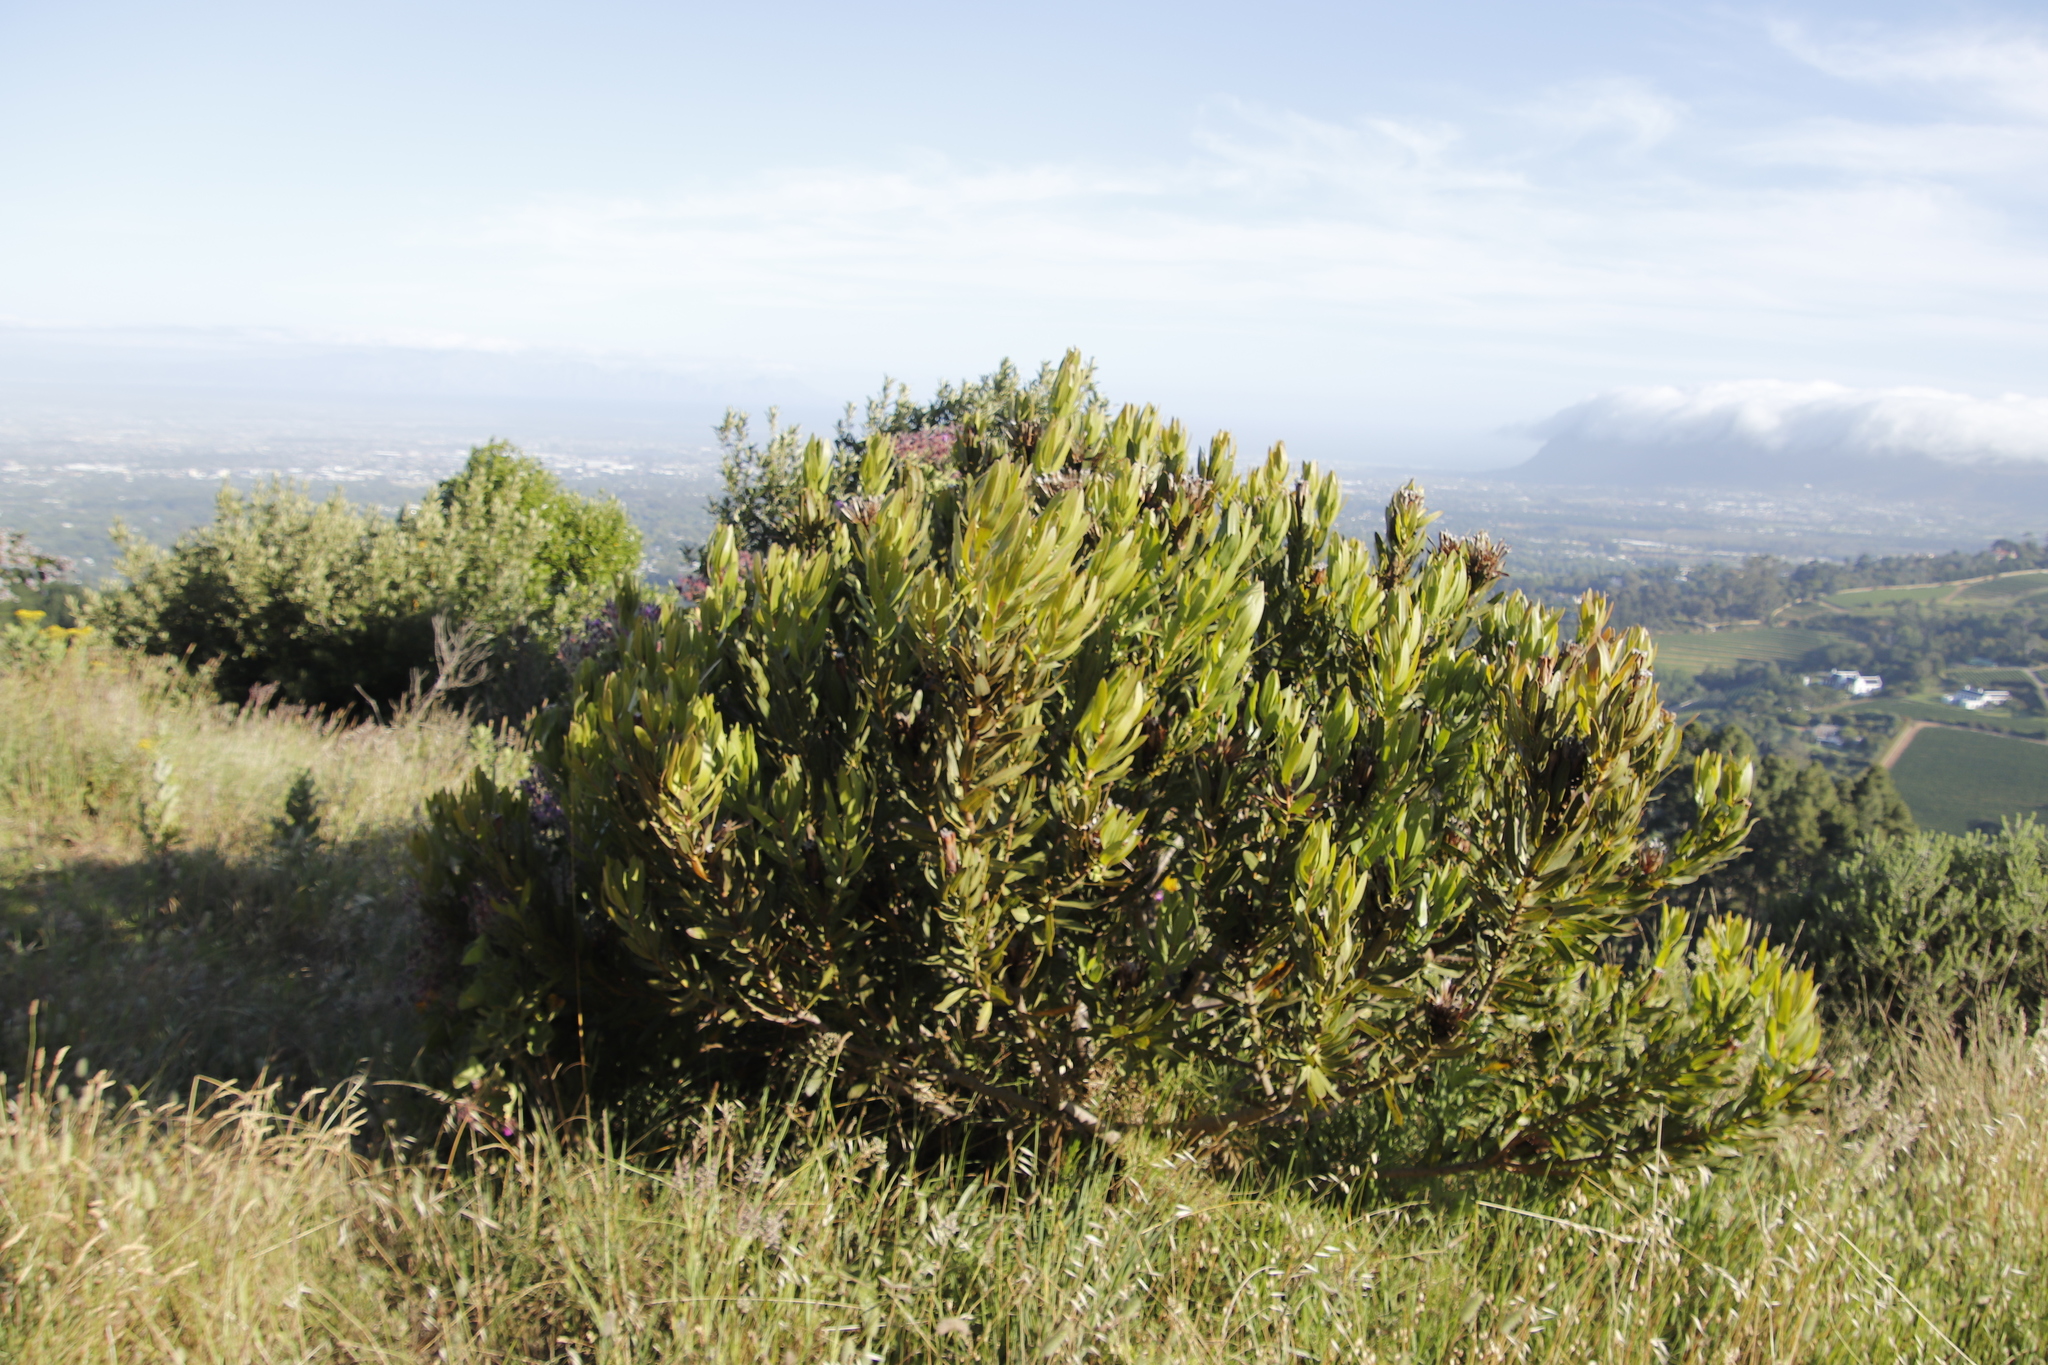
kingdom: Plantae
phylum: Tracheophyta
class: Magnoliopsida
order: Proteales
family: Proteaceae
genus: Protea
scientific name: Protea lepidocarpodendron
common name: Black-bearded protea
